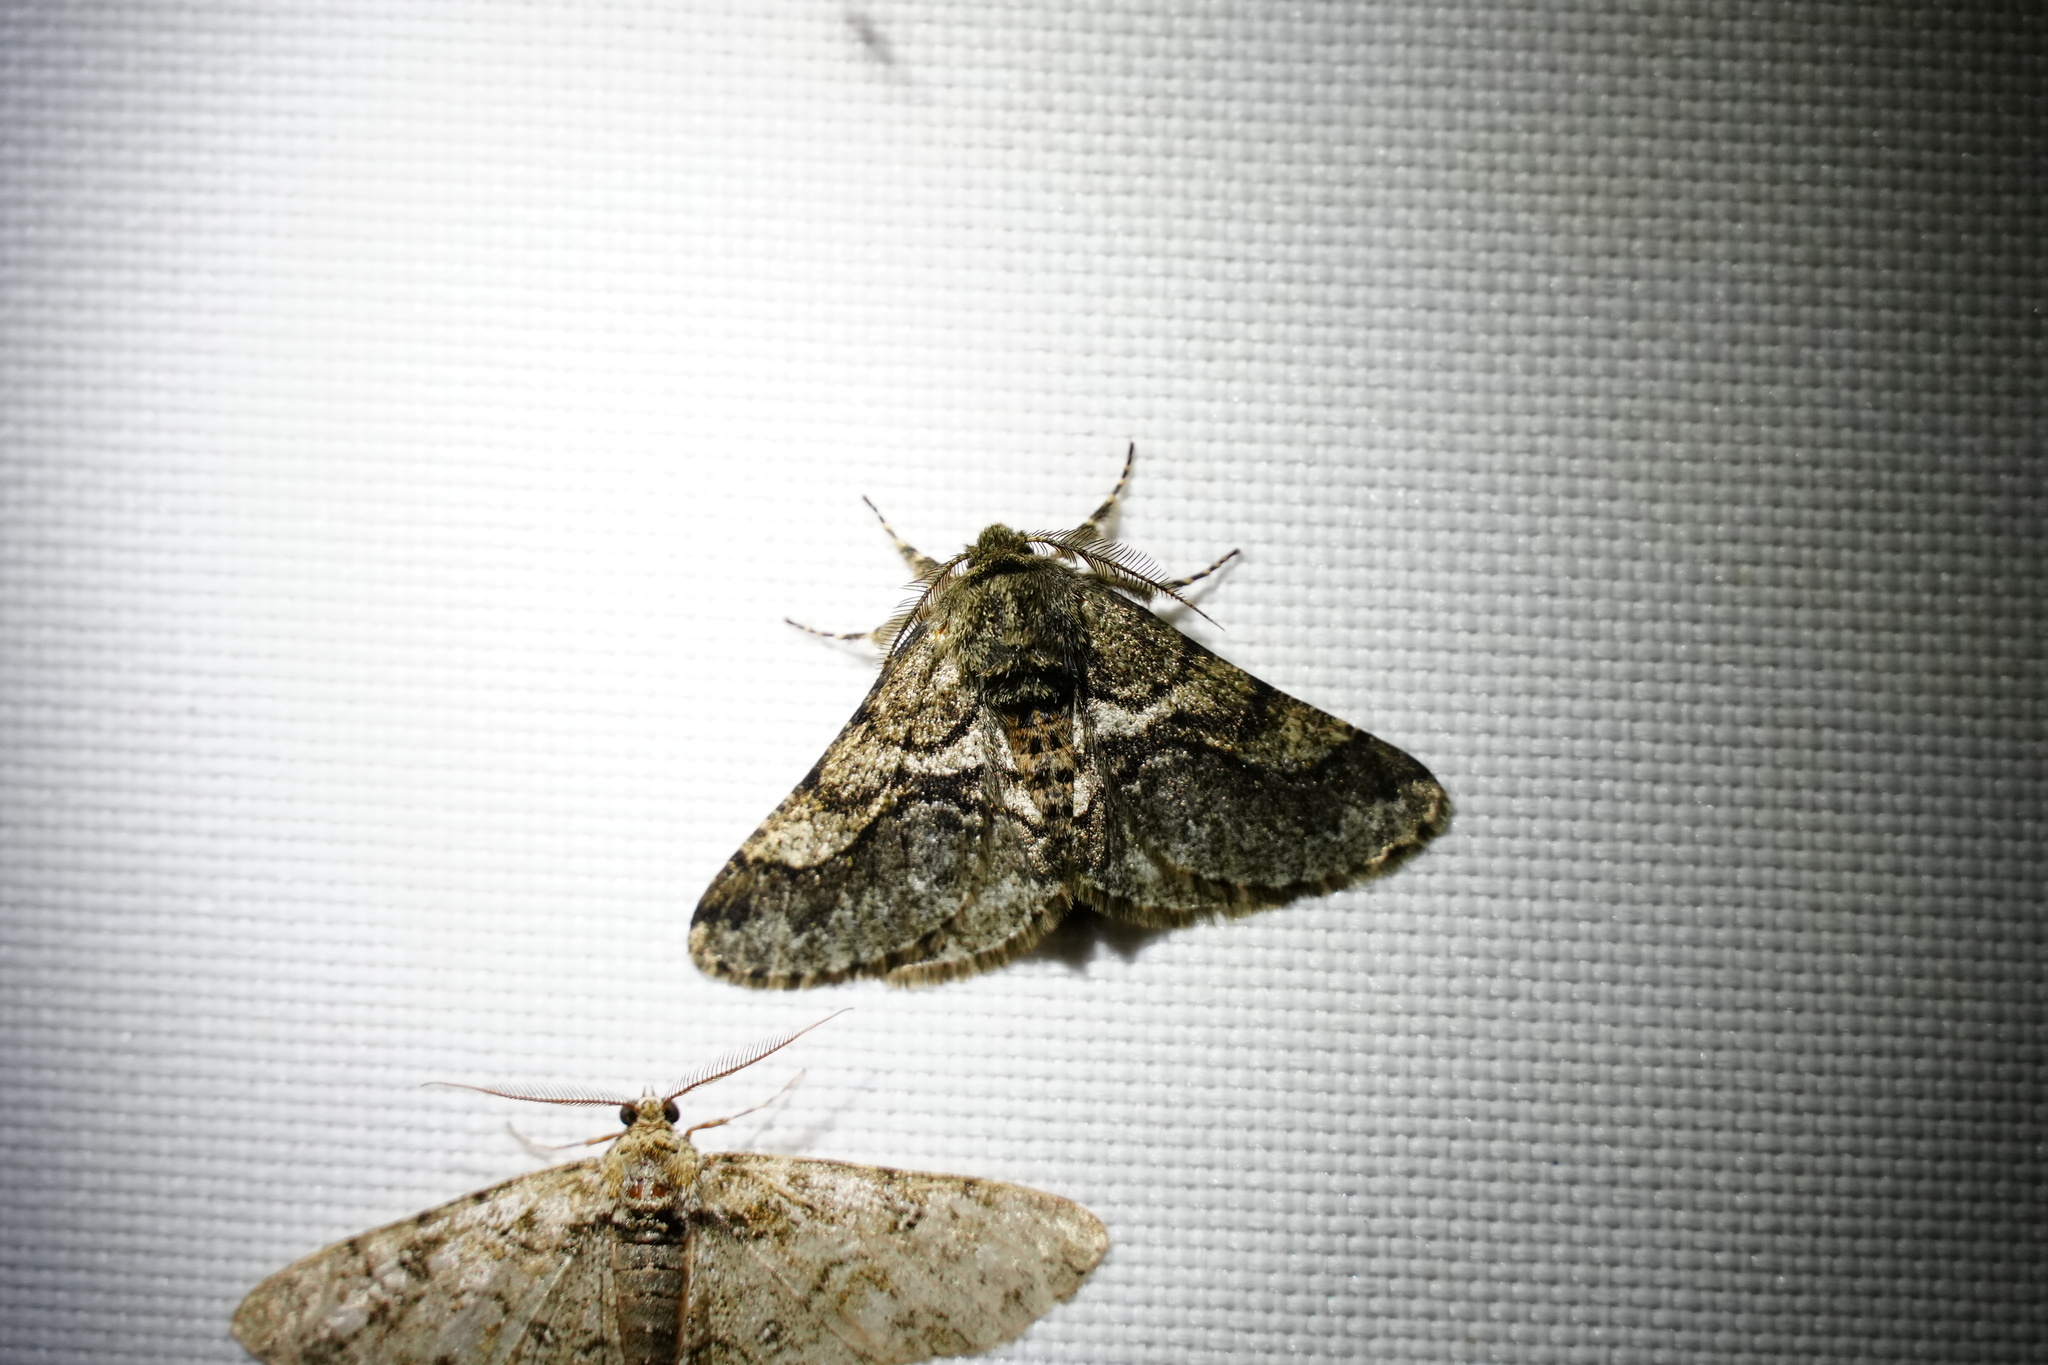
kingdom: Animalia
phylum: Arthropoda
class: Insecta
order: Lepidoptera
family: Geometridae
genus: Lycia
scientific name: Lycia ypsilon
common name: Wooly gray
